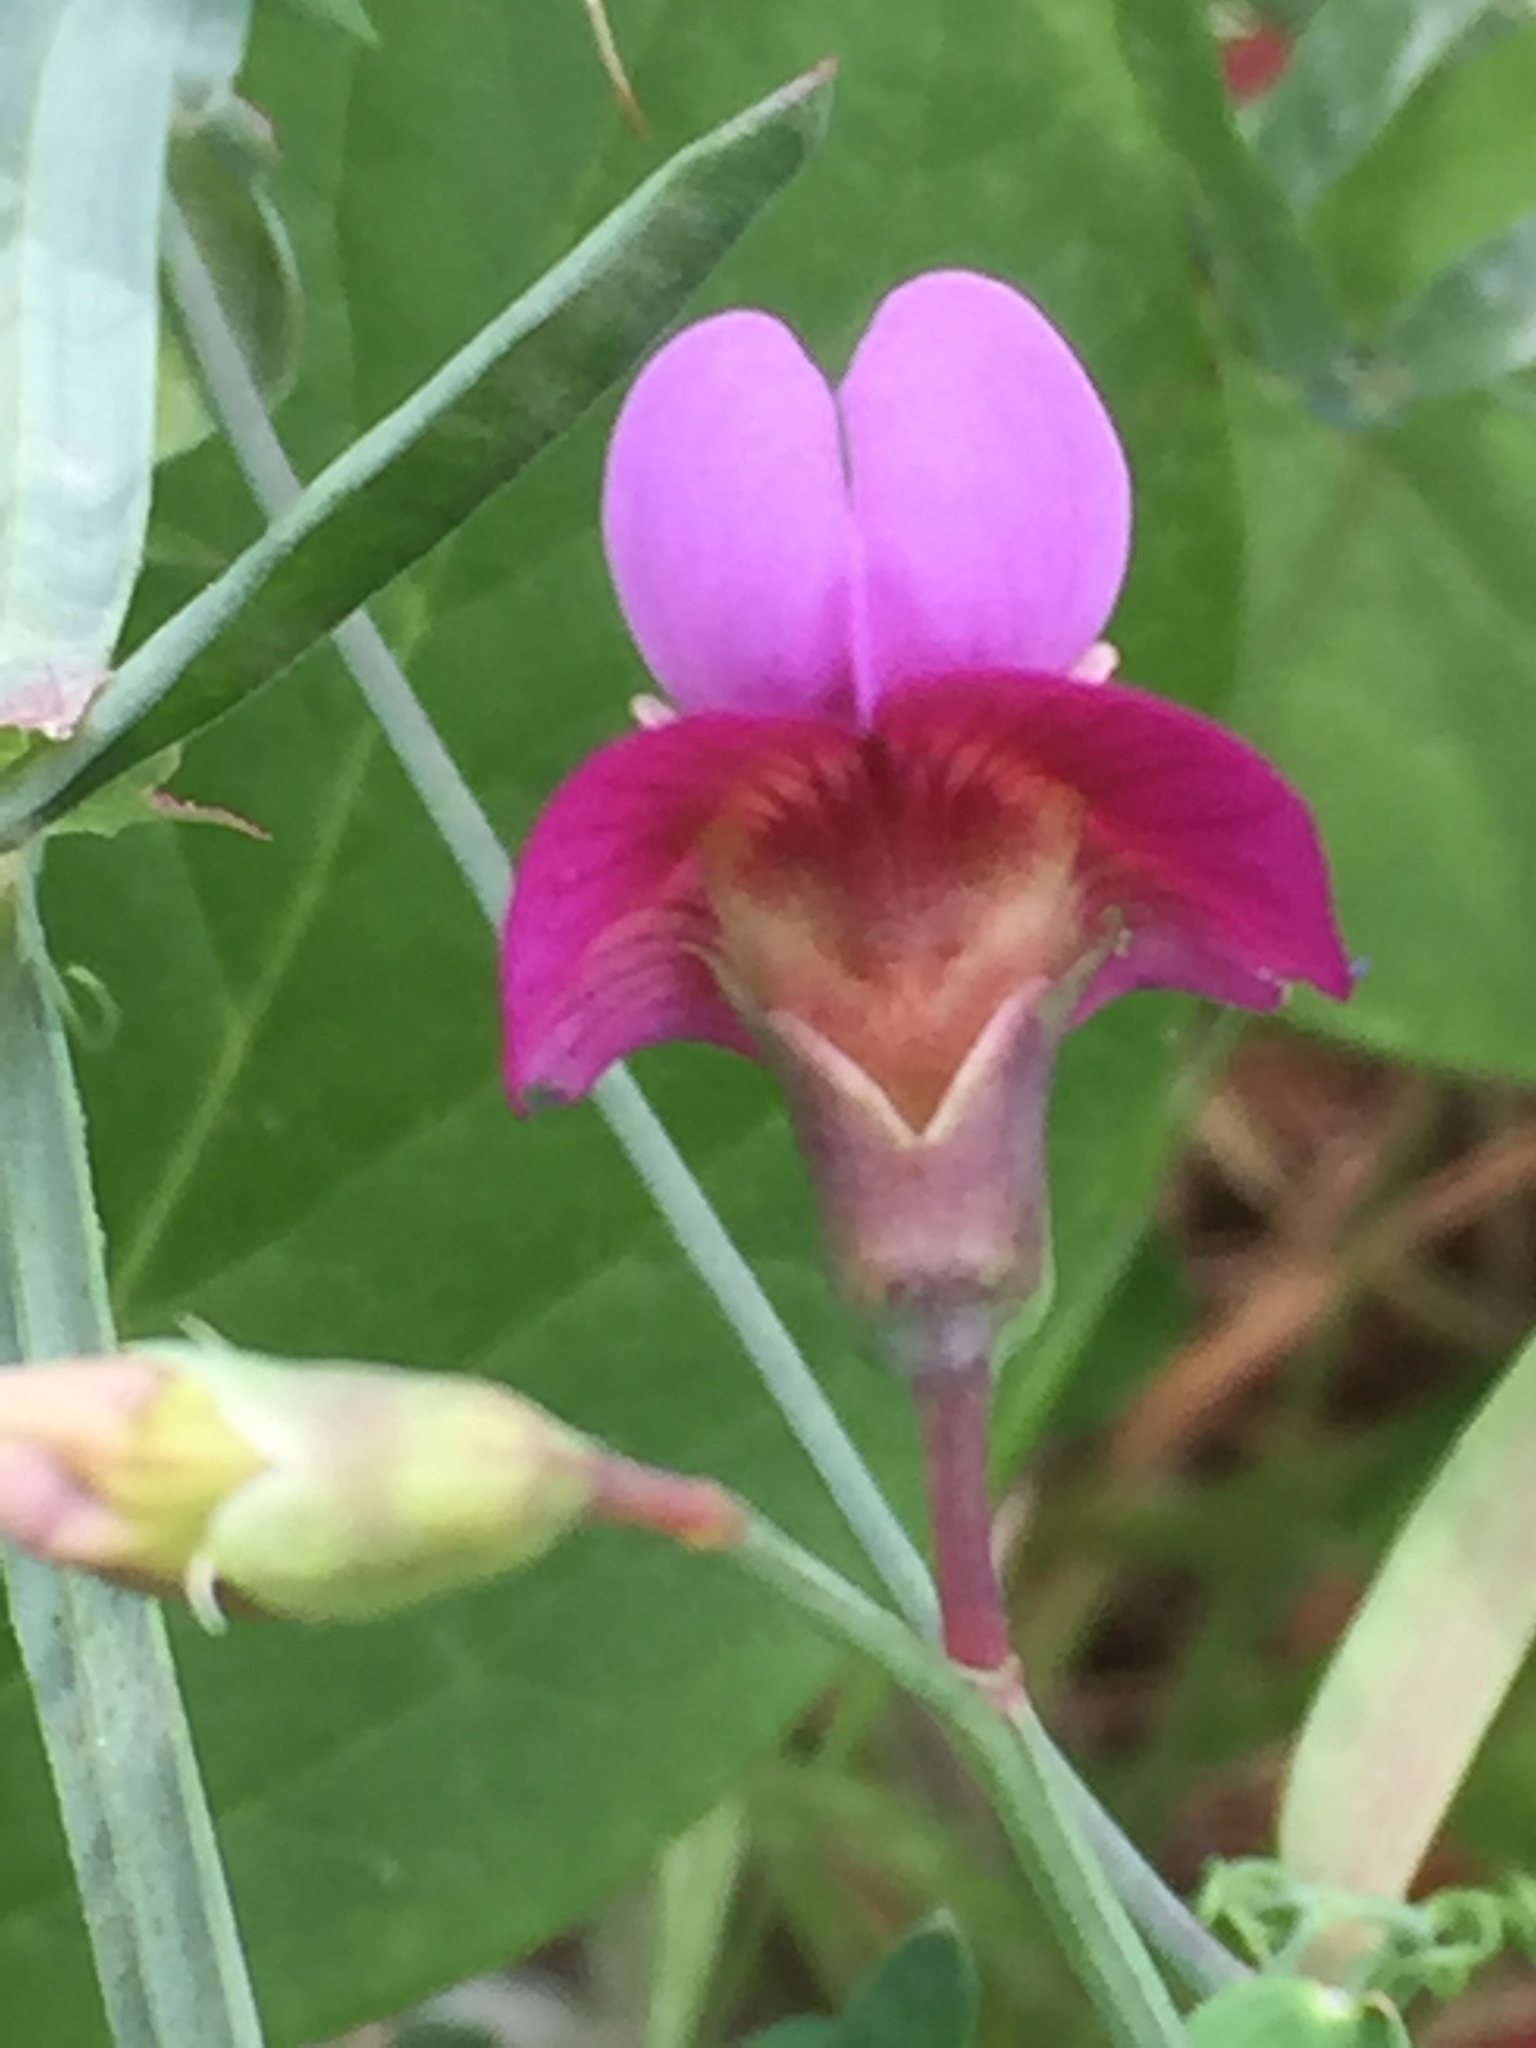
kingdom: Plantae
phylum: Tracheophyta
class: Magnoliopsida
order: Fabales
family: Fabaceae
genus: Lathyrus
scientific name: Lathyrus clymenum
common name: Spanish vetchling
